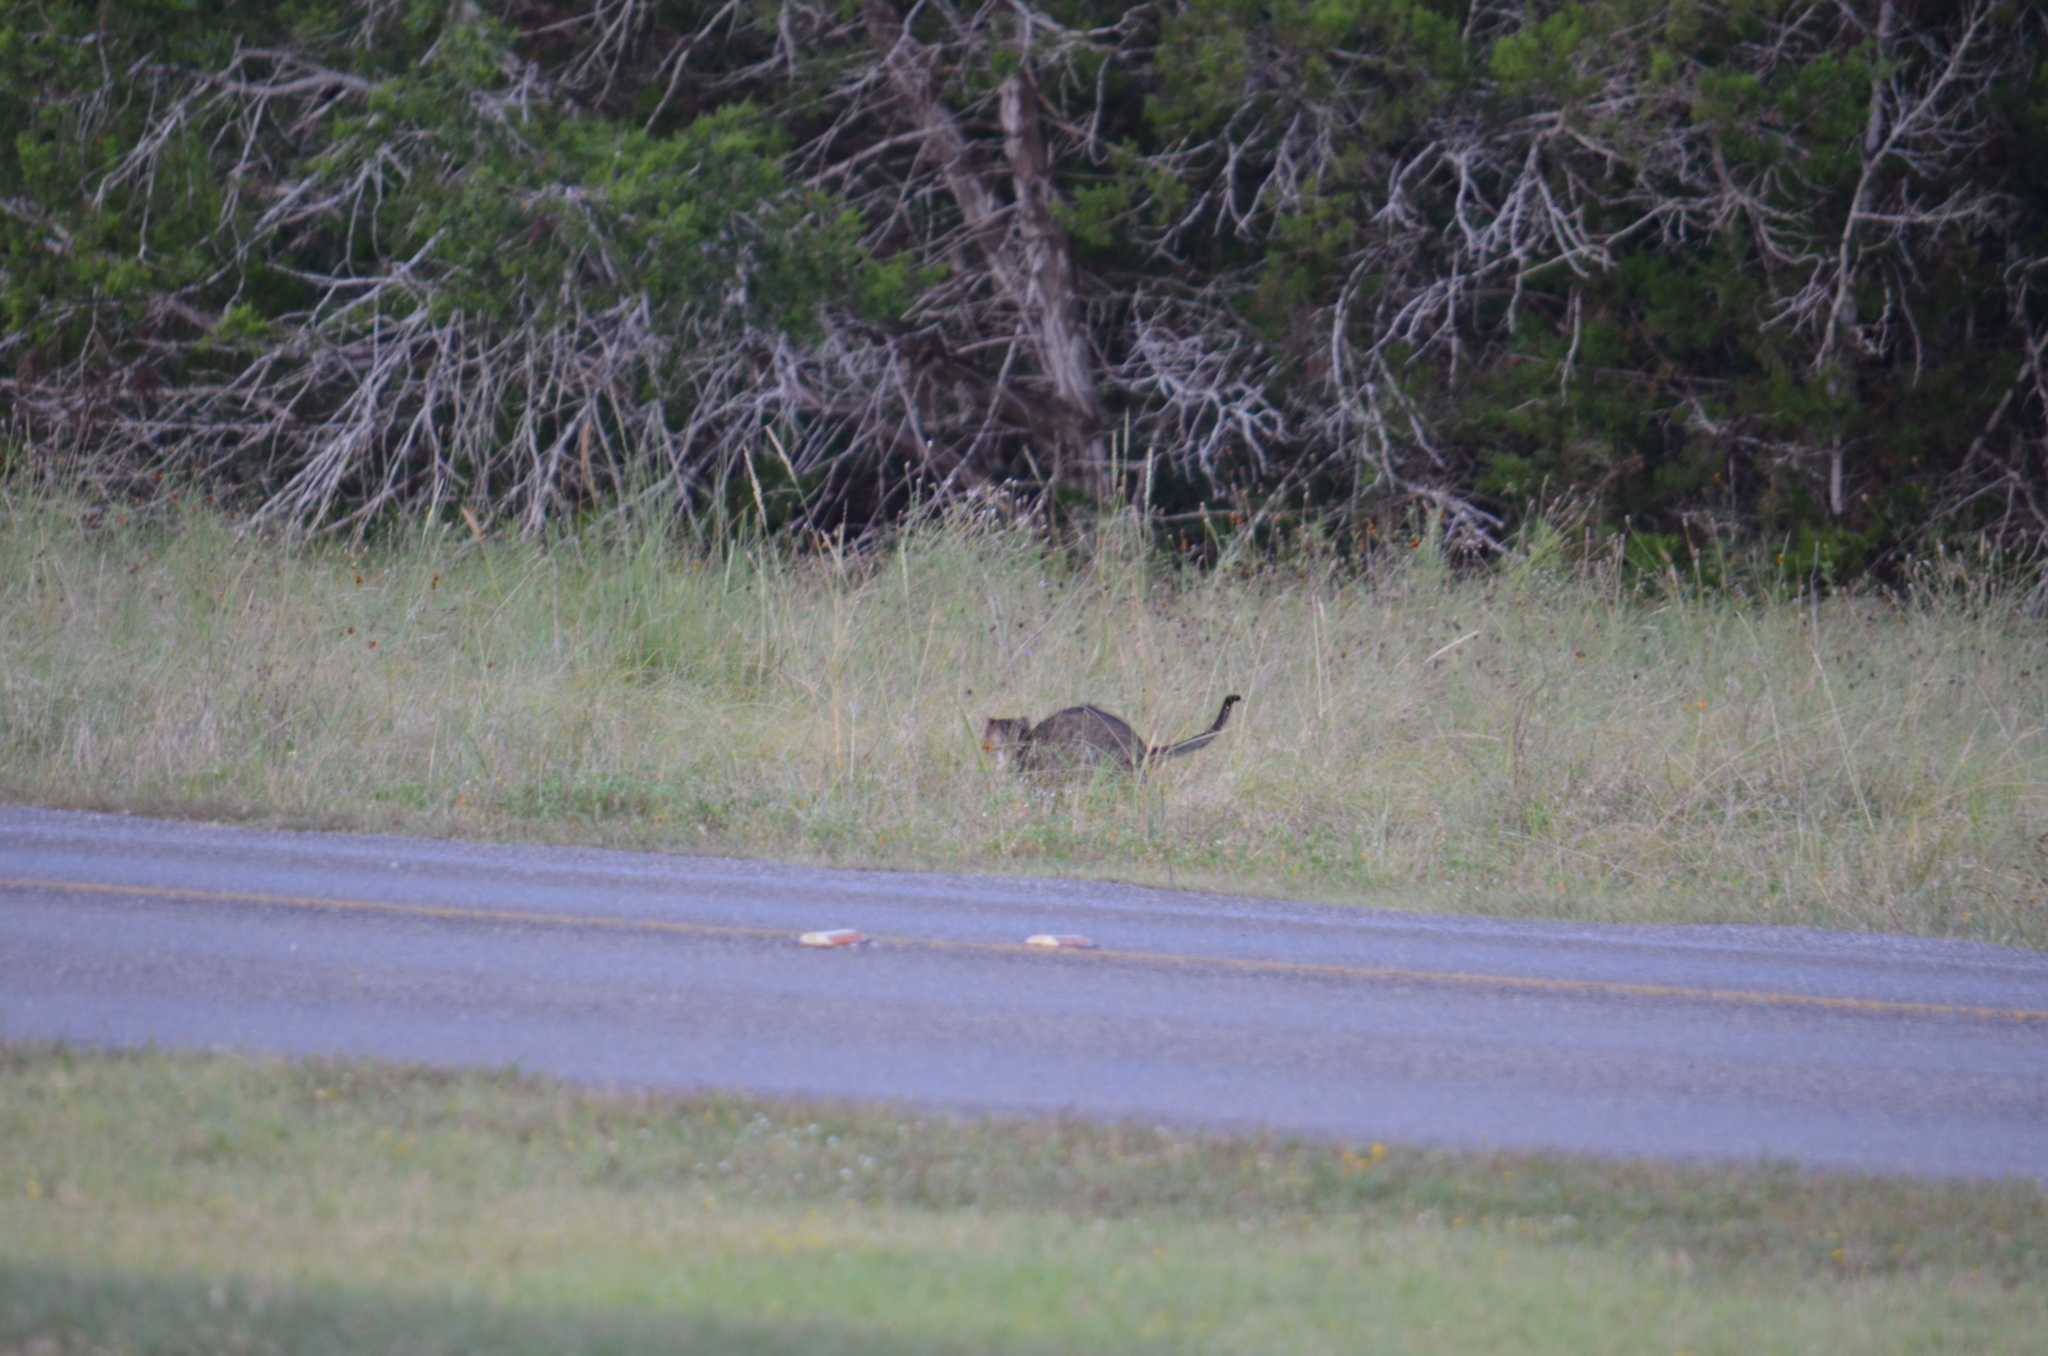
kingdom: Animalia
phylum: Chordata
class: Mammalia
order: Carnivora
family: Felidae
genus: Felis
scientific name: Felis catus
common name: Domestic cat
